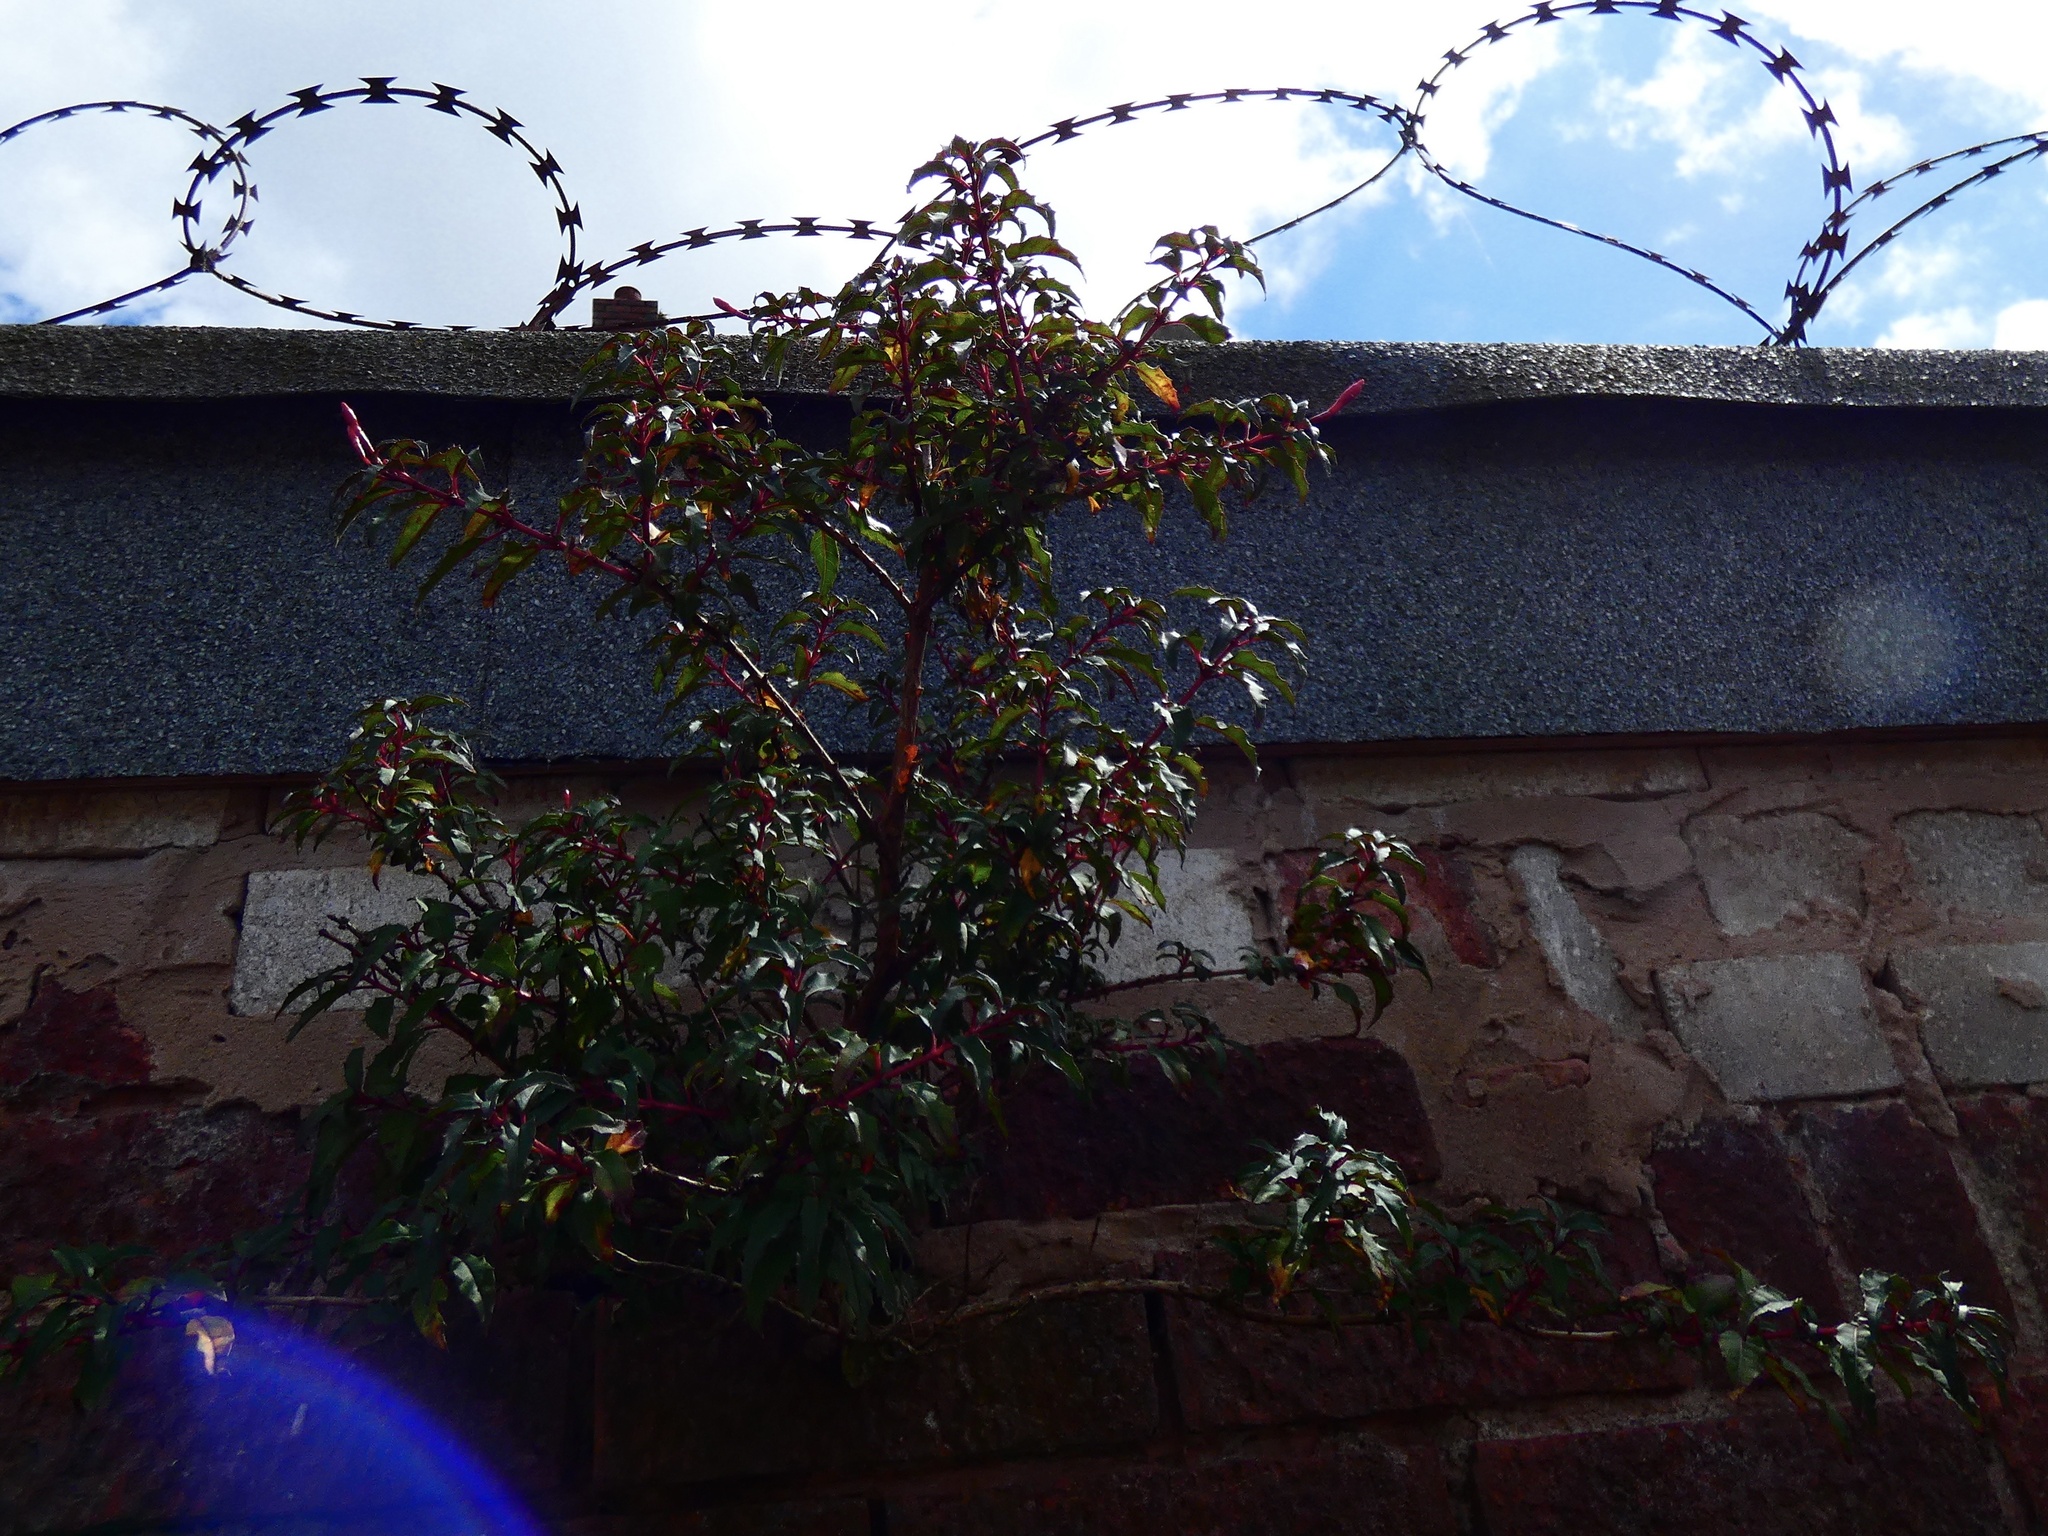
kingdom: Plantae
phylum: Tracheophyta
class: Magnoliopsida
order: Myrtales
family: Onagraceae
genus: Fuchsia
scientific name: Fuchsia magellanica
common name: Hardy fuchsia
